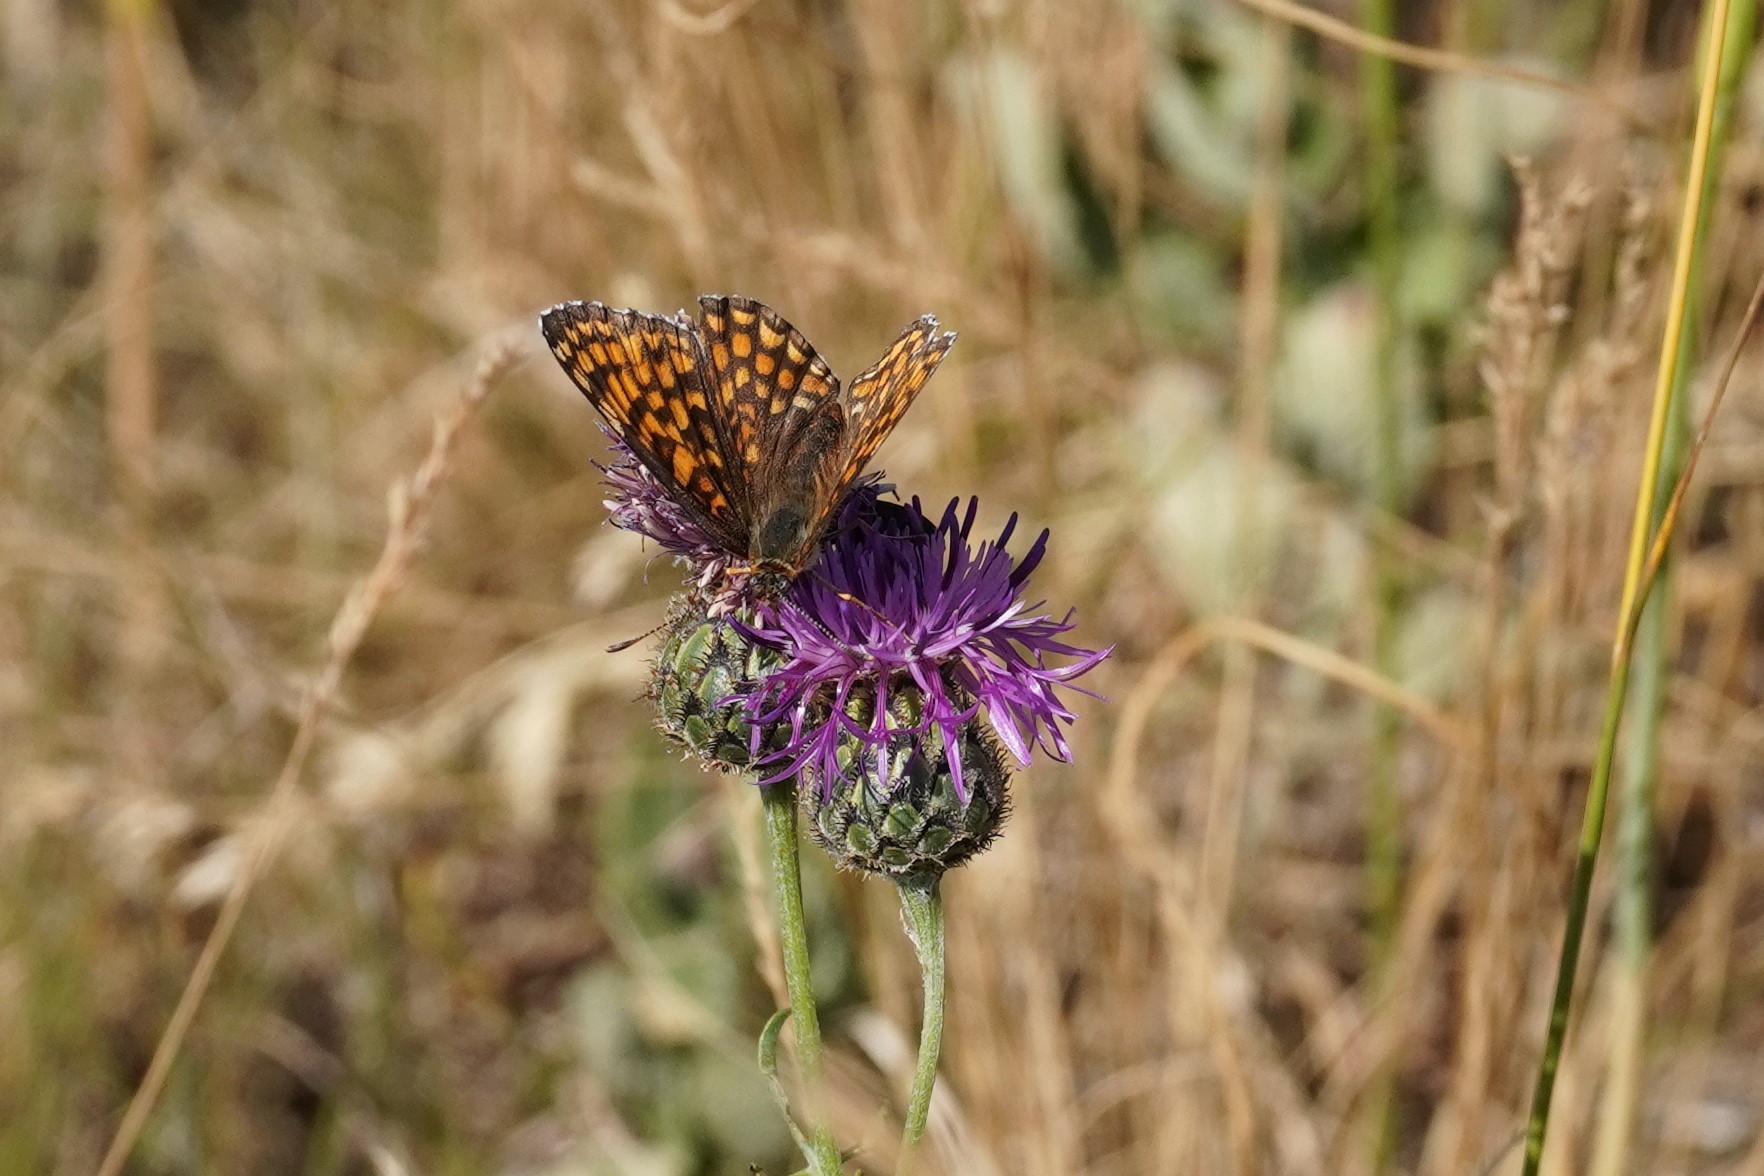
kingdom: Animalia
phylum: Arthropoda
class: Insecta
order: Lepidoptera
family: Nymphalidae
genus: Melitaea
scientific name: Melitaea phoebe
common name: Knapweed fritillary
